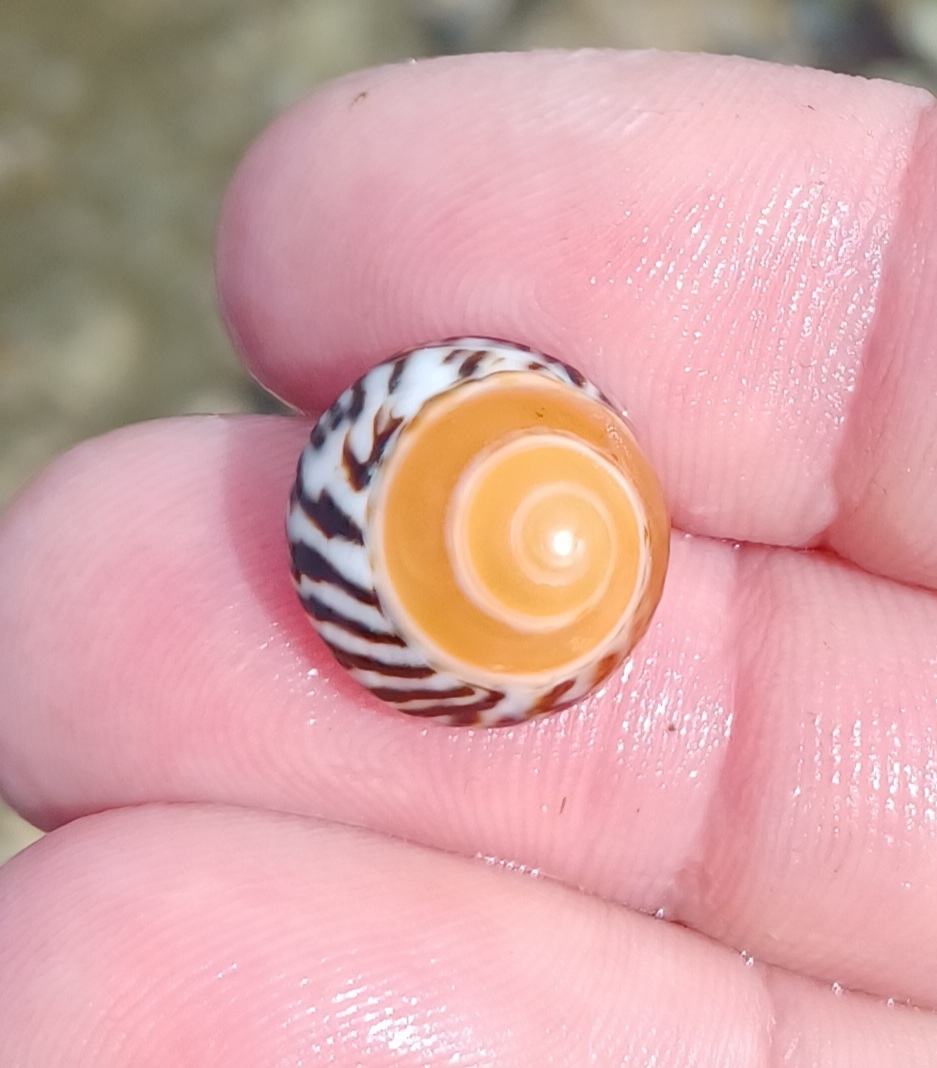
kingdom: Animalia
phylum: Mollusca
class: Gastropoda
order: Littorinimorpha
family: Littorinidae
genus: Bembicium
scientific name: Bembicium nanum
